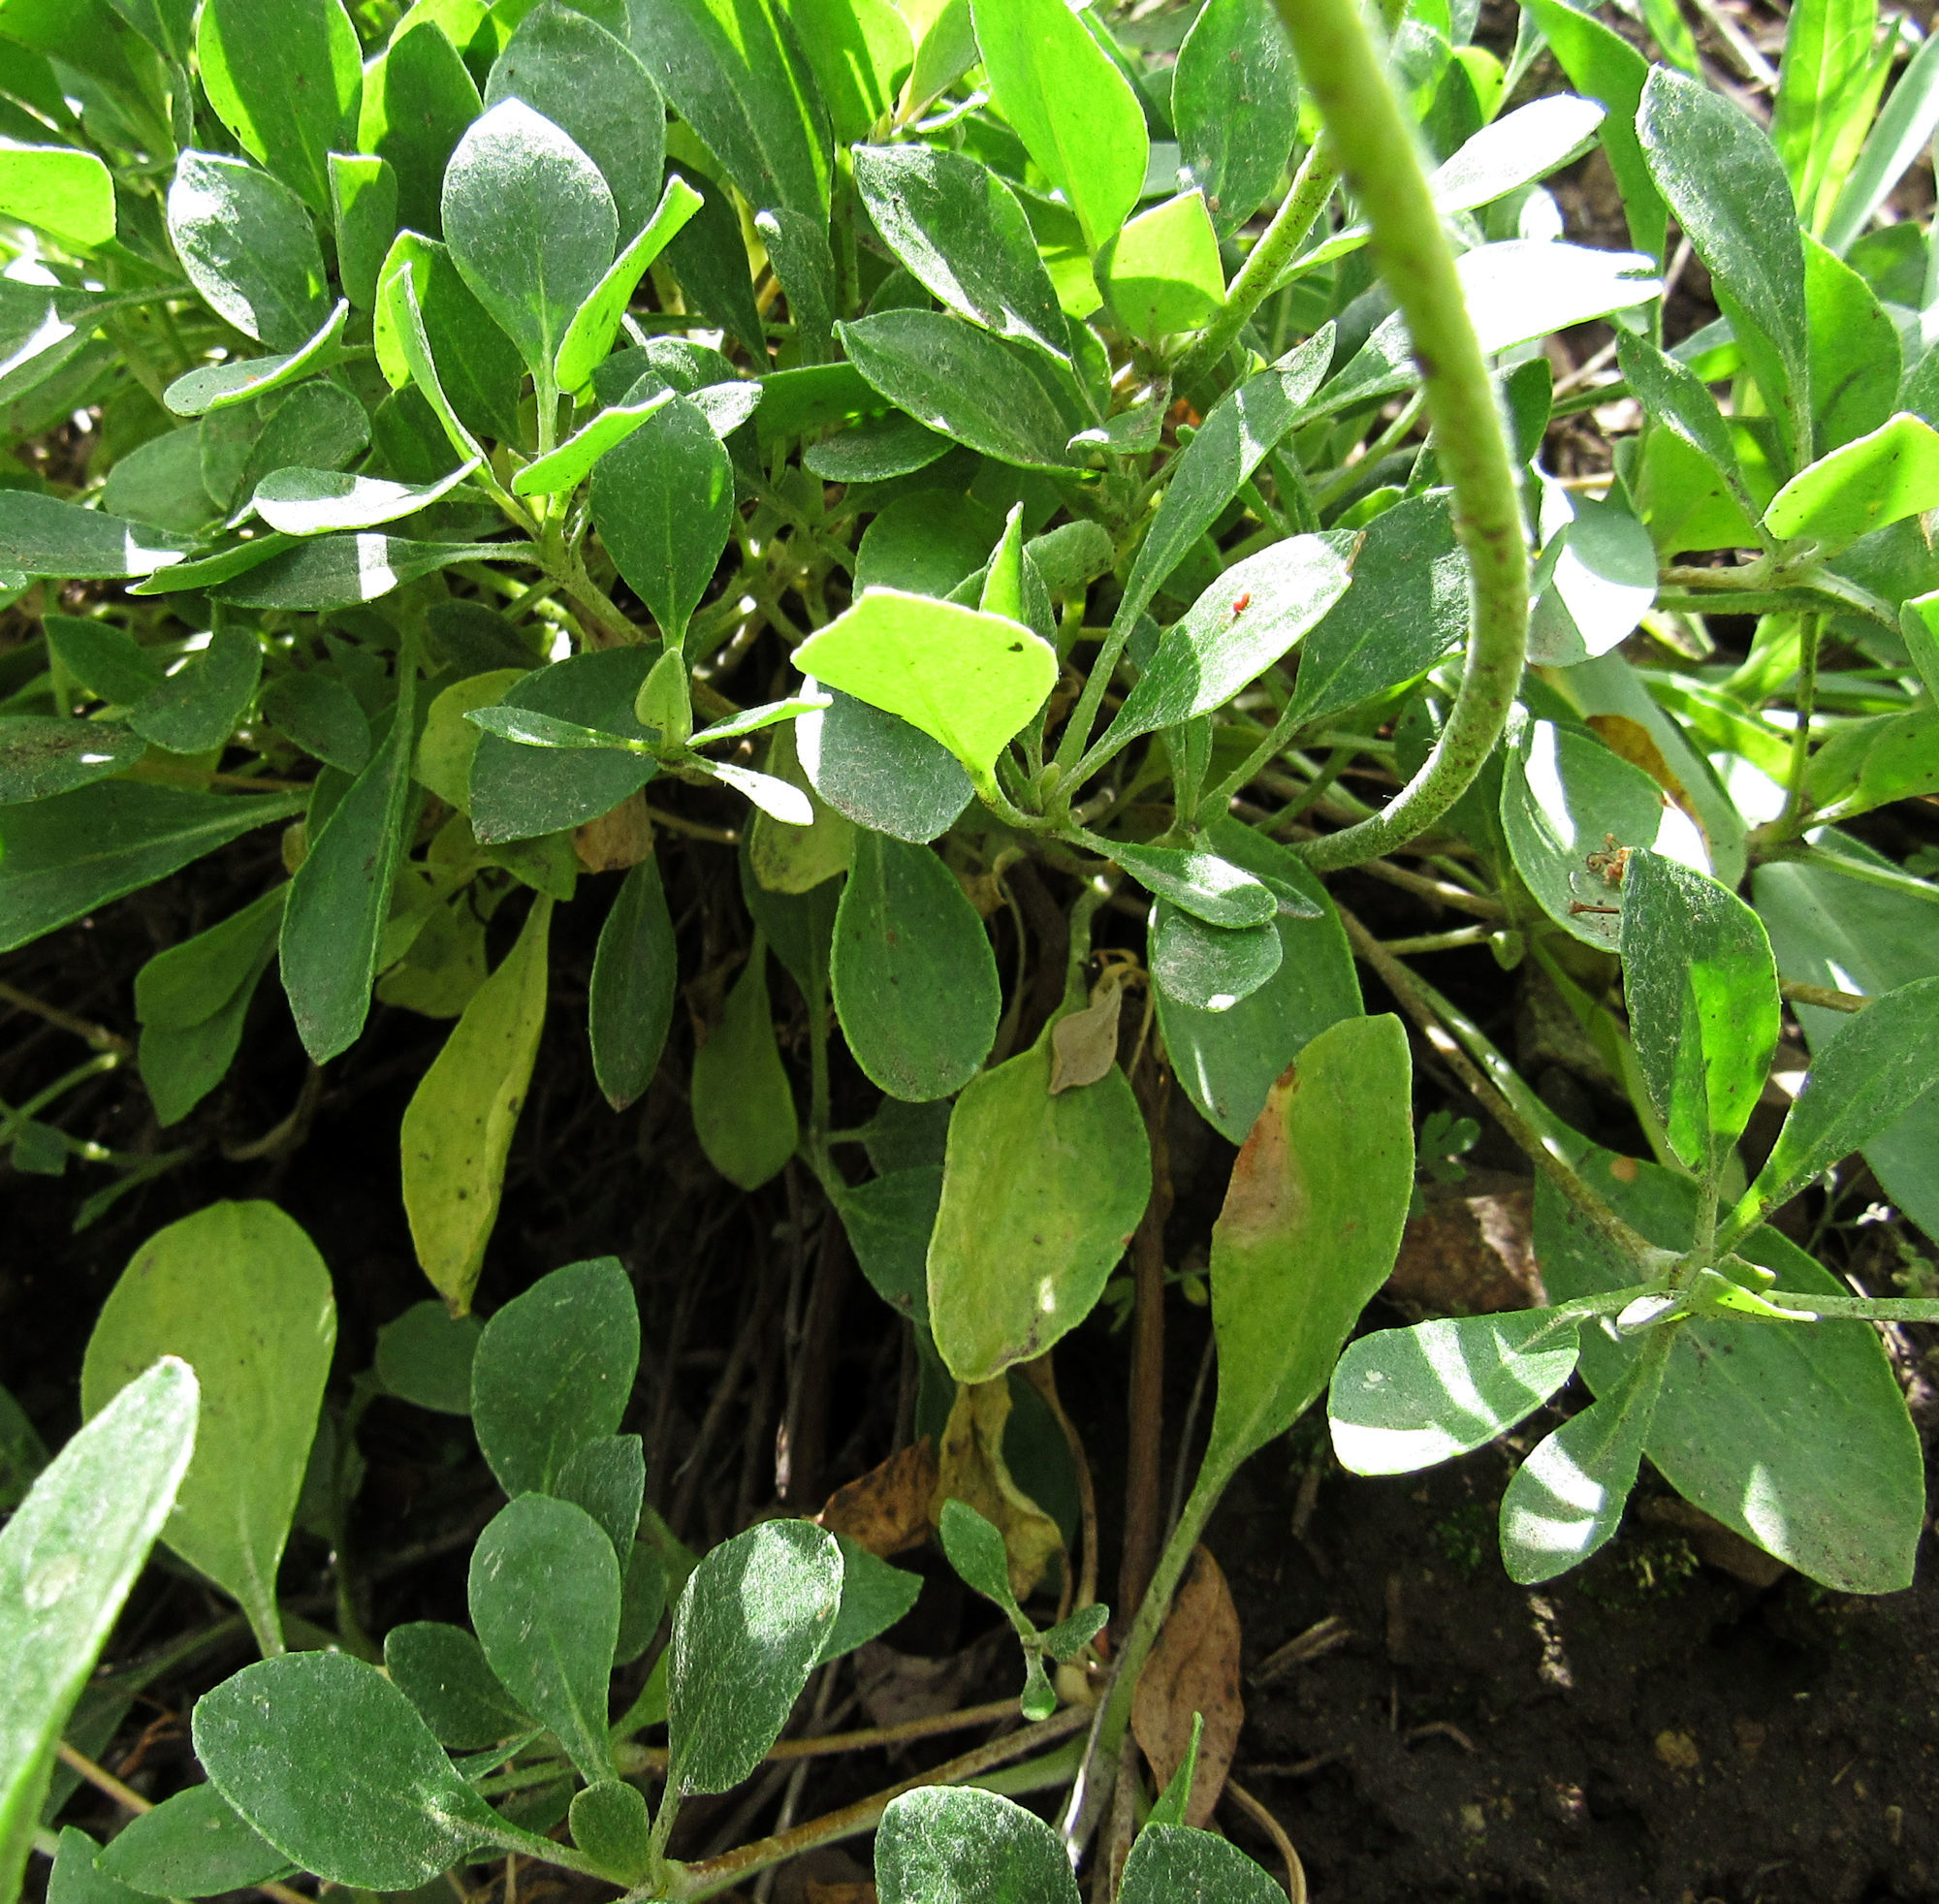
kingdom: Plantae
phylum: Tracheophyta
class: Magnoliopsida
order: Caryophyllales
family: Polygonaceae
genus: Eriogonum
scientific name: Eriogonum umbellatum
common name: Sulfur-buckwheat
